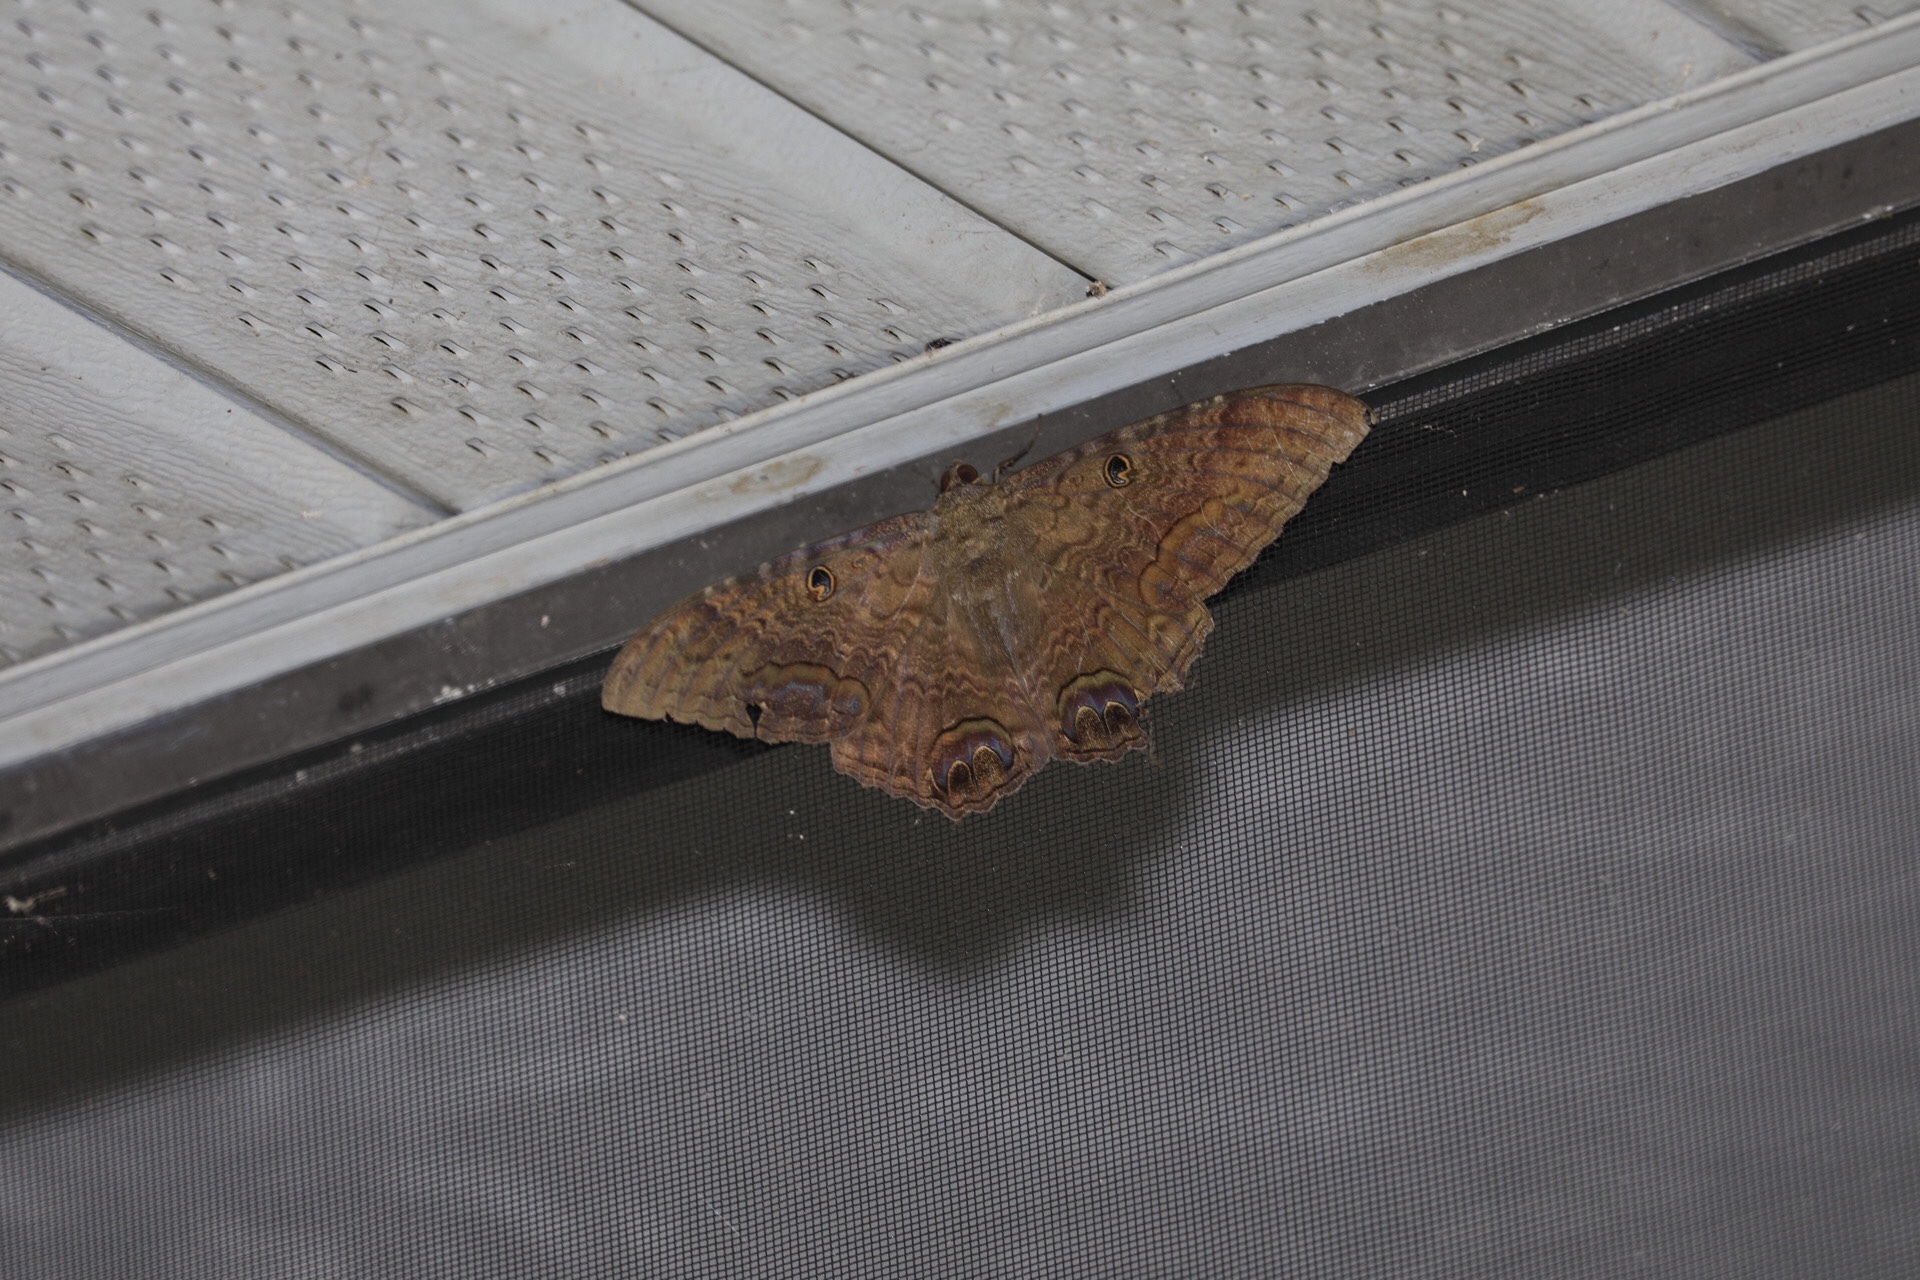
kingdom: Animalia
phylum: Arthropoda
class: Insecta
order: Lepidoptera
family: Erebidae
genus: Ascalapha
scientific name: Ascalapha odorata
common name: Black witch
